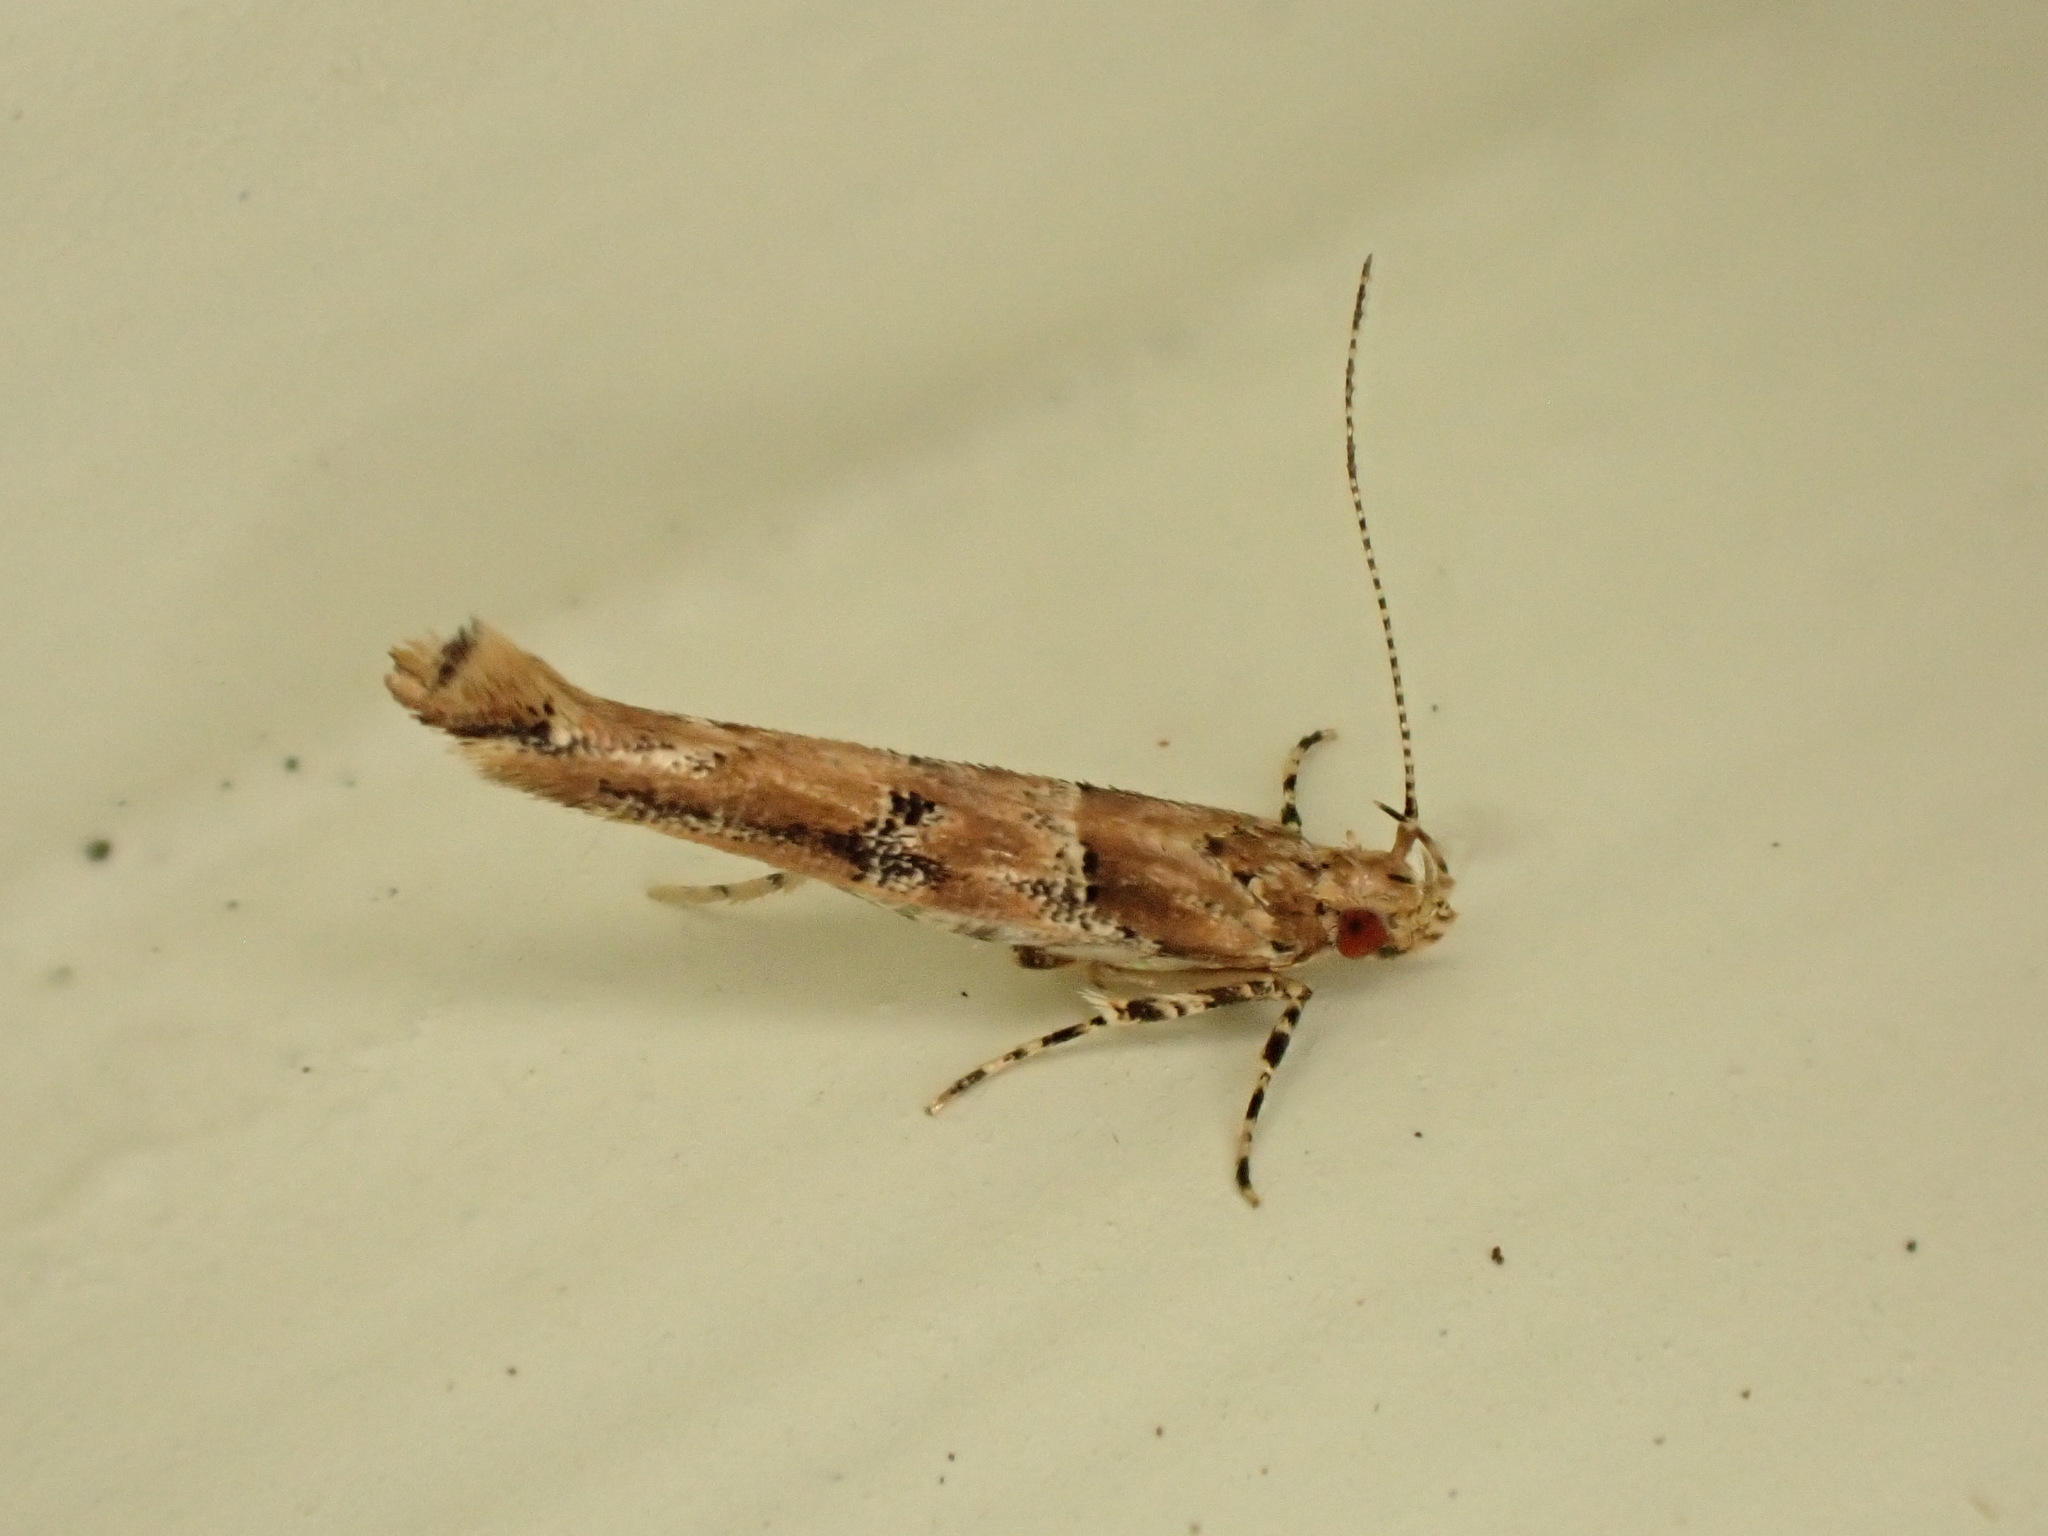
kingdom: Animalia
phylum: Arthropoda
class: Insecta
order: Lepidoptera
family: Cosmopterigidae
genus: Pyroderces
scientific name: Pyroderces aellotricha
